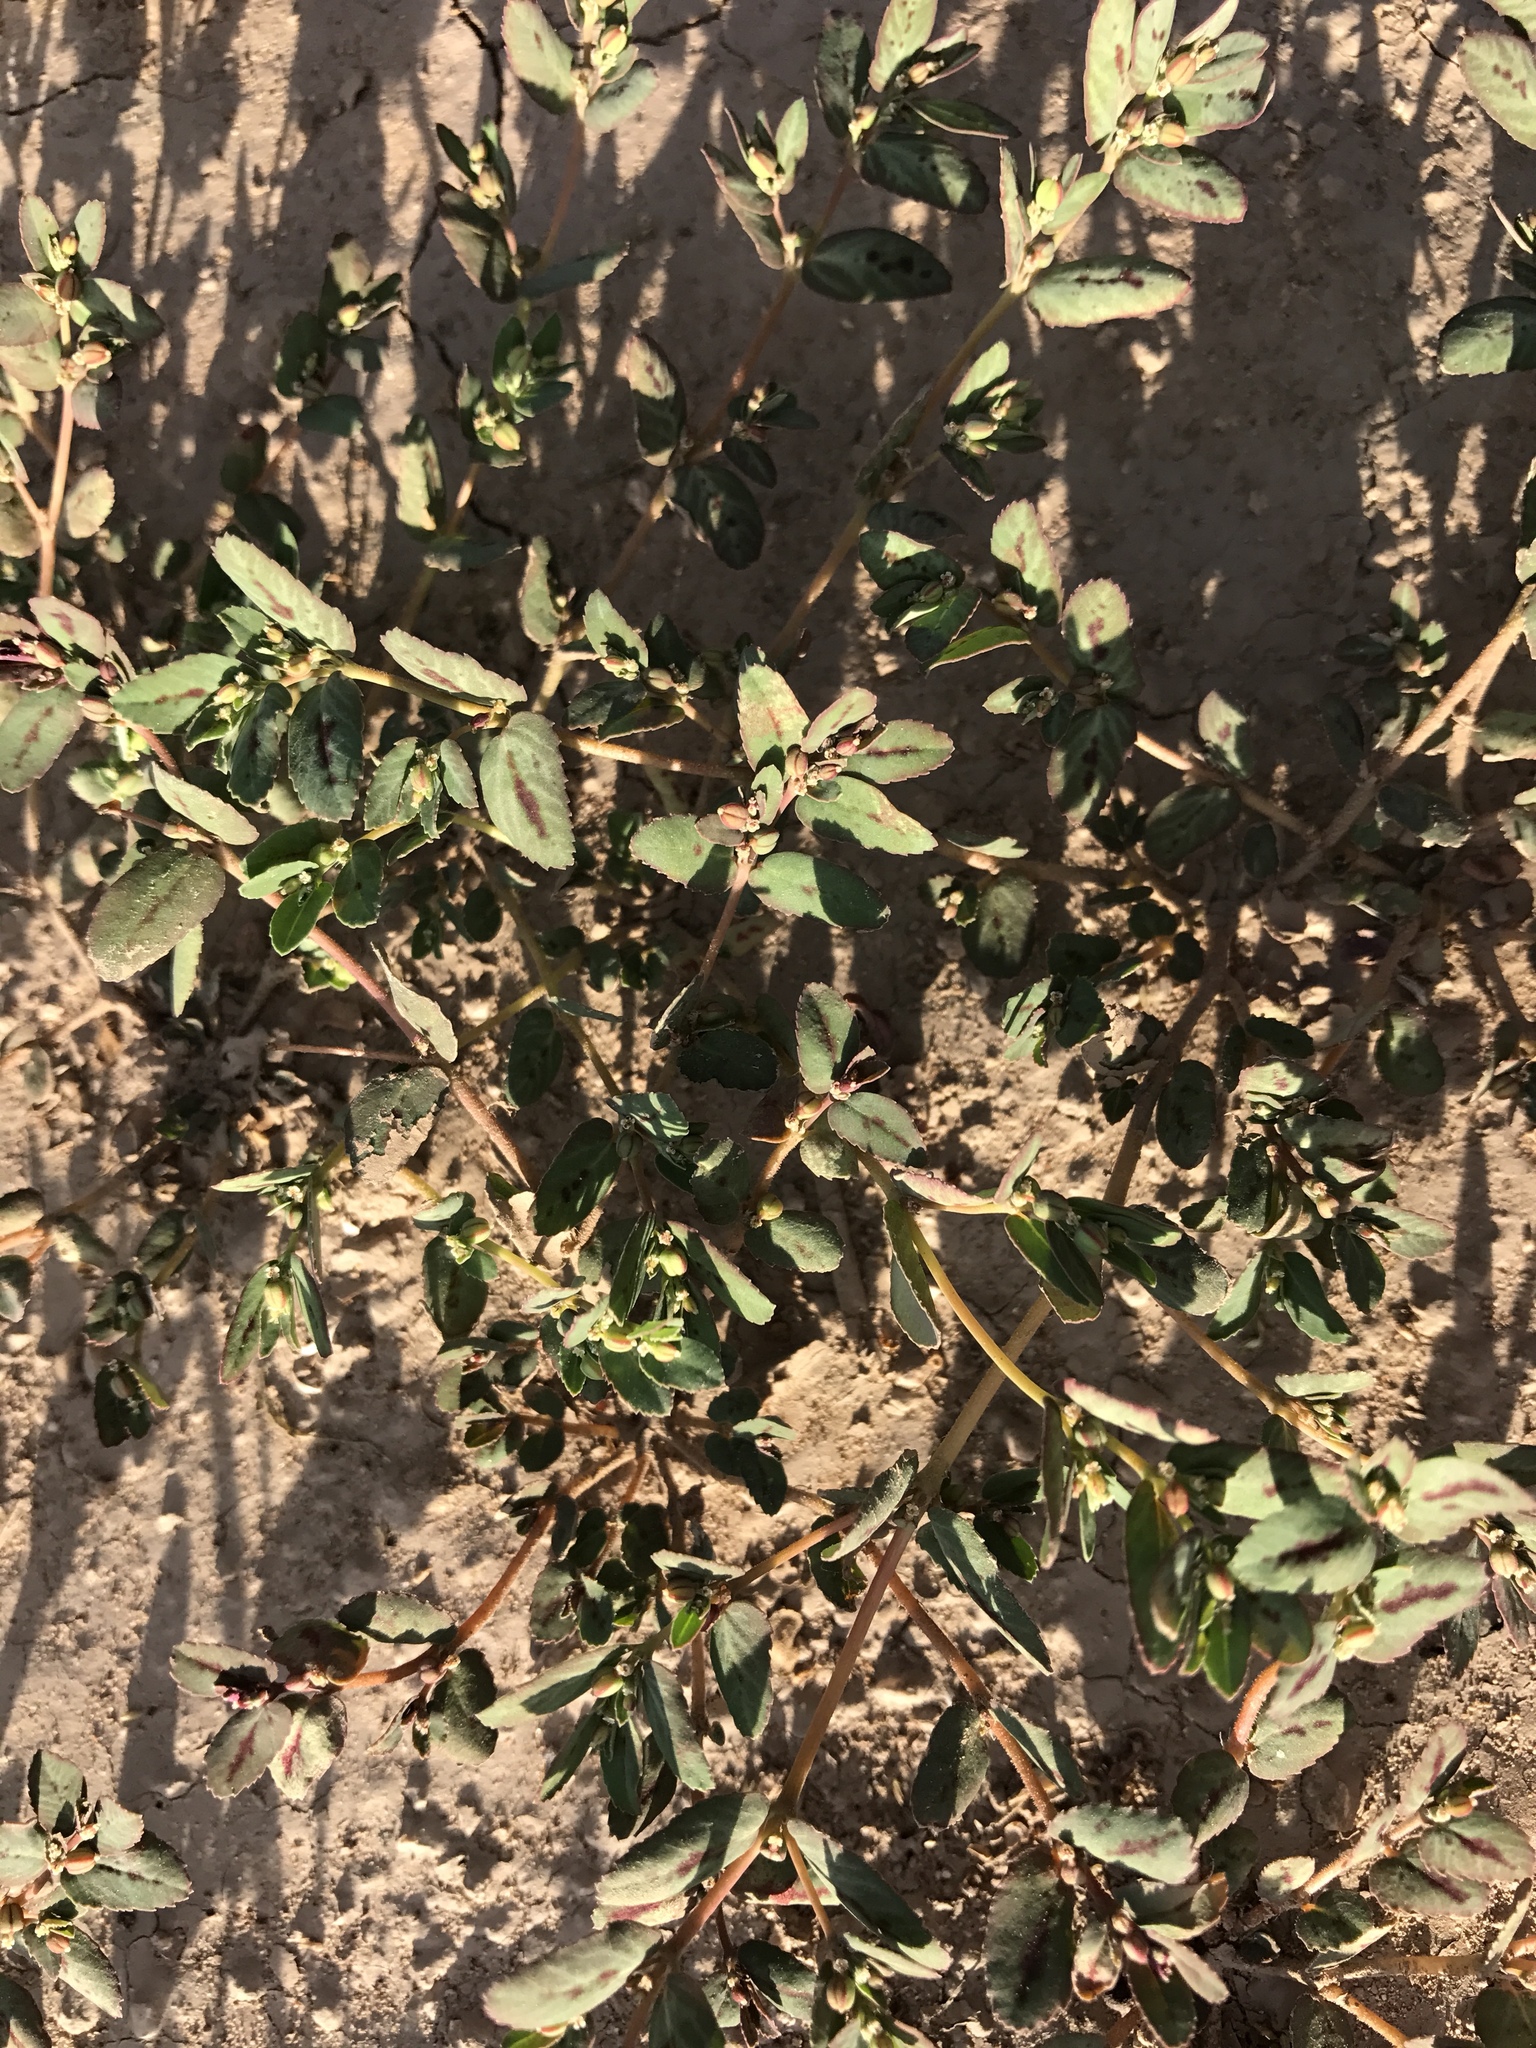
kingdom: Plantae
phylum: Tracheophyta
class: Magnoliopsida
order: Malpighiales
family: Euphorbiaceae
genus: Euphorbia
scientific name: Euphorbia abramsiana
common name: Abram's spurge
